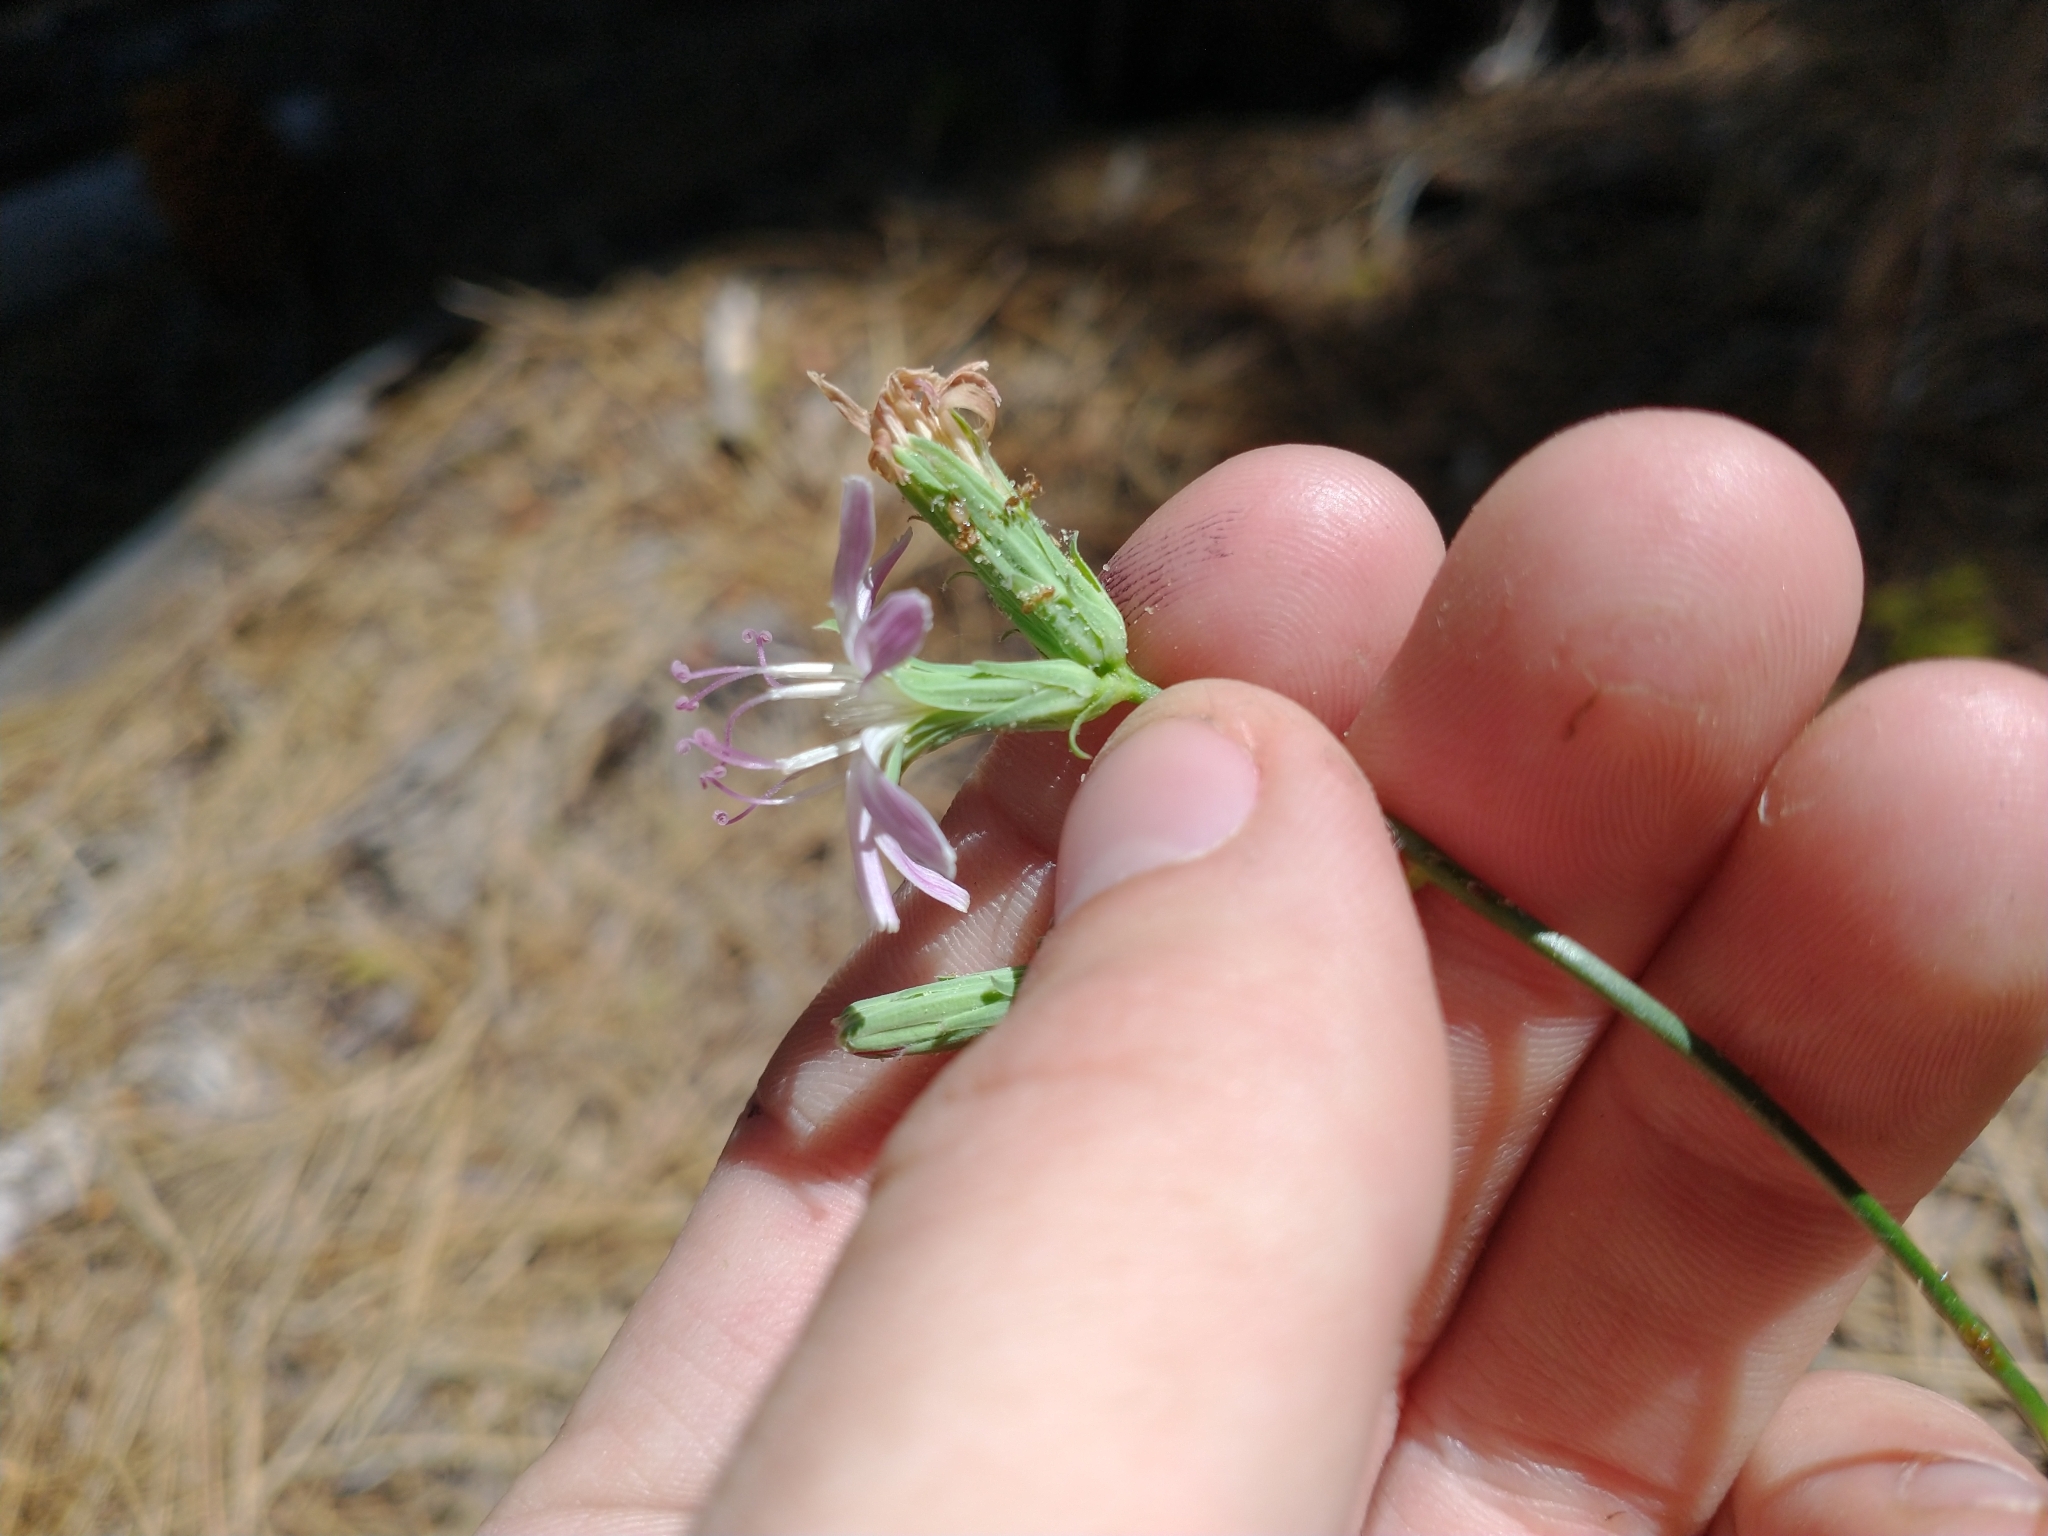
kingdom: Plantae
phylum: Tracheophyta
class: Magnoliopsida
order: Asterales
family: Asteraceae
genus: Stephanomeria
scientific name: Stephanomeria lactucina
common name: Large-flowered wirelettuce
